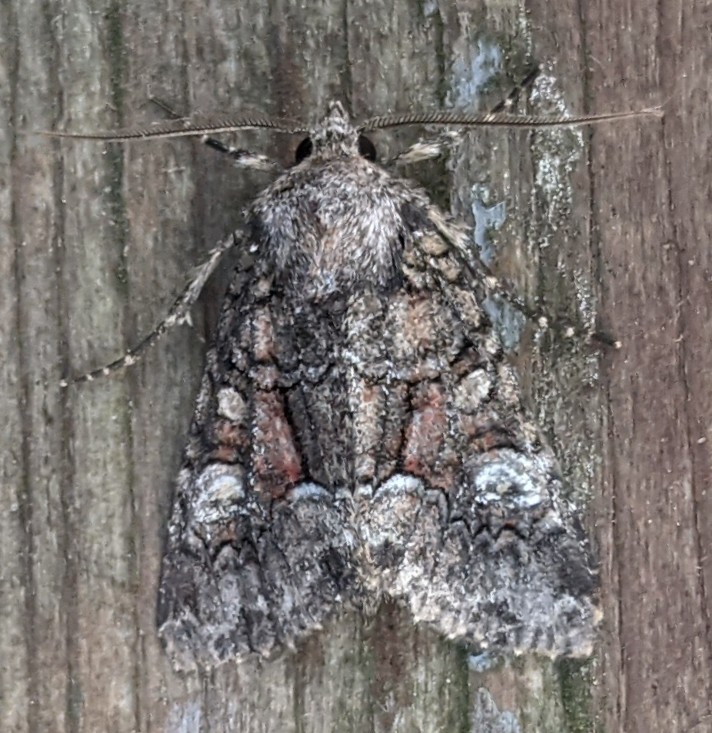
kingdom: Animalia
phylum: Arthropoda
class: Insecta
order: Lepidoptera
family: Noctuidae
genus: Fishia
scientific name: Fishia illocata
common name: Wandering brocade moth
